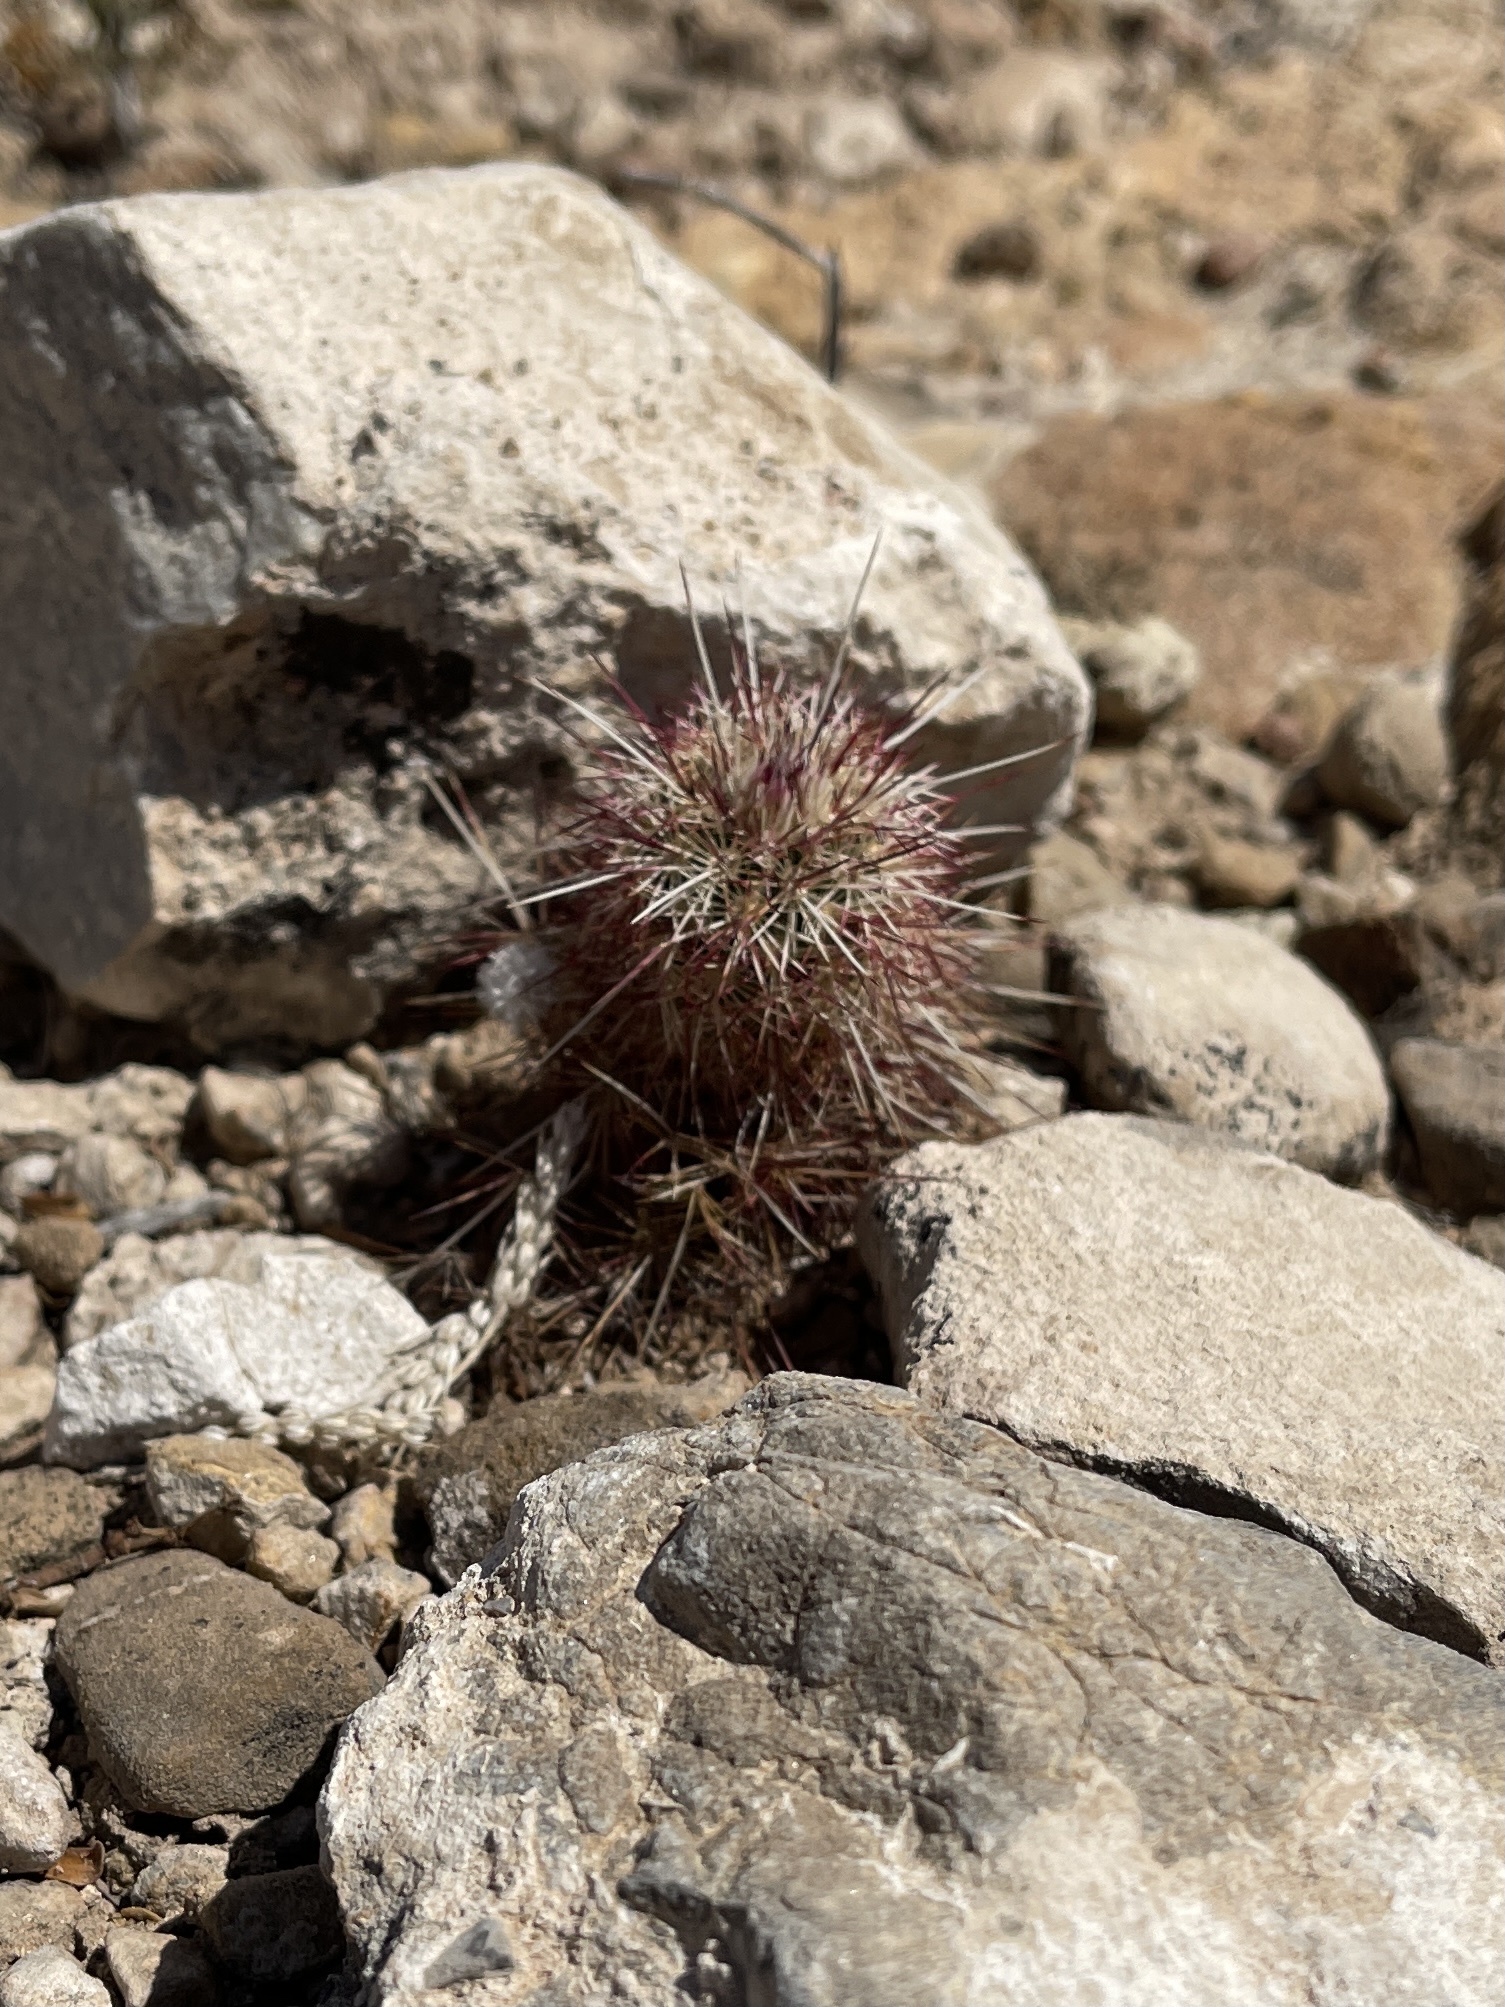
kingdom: Plantae
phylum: Tracheophyta
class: Magnoliopsida
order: Caryophyllales
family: Cactaceae
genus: Echinocereus
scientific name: Echinocereus viridiflorus
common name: Nylon hedgehog cactus
